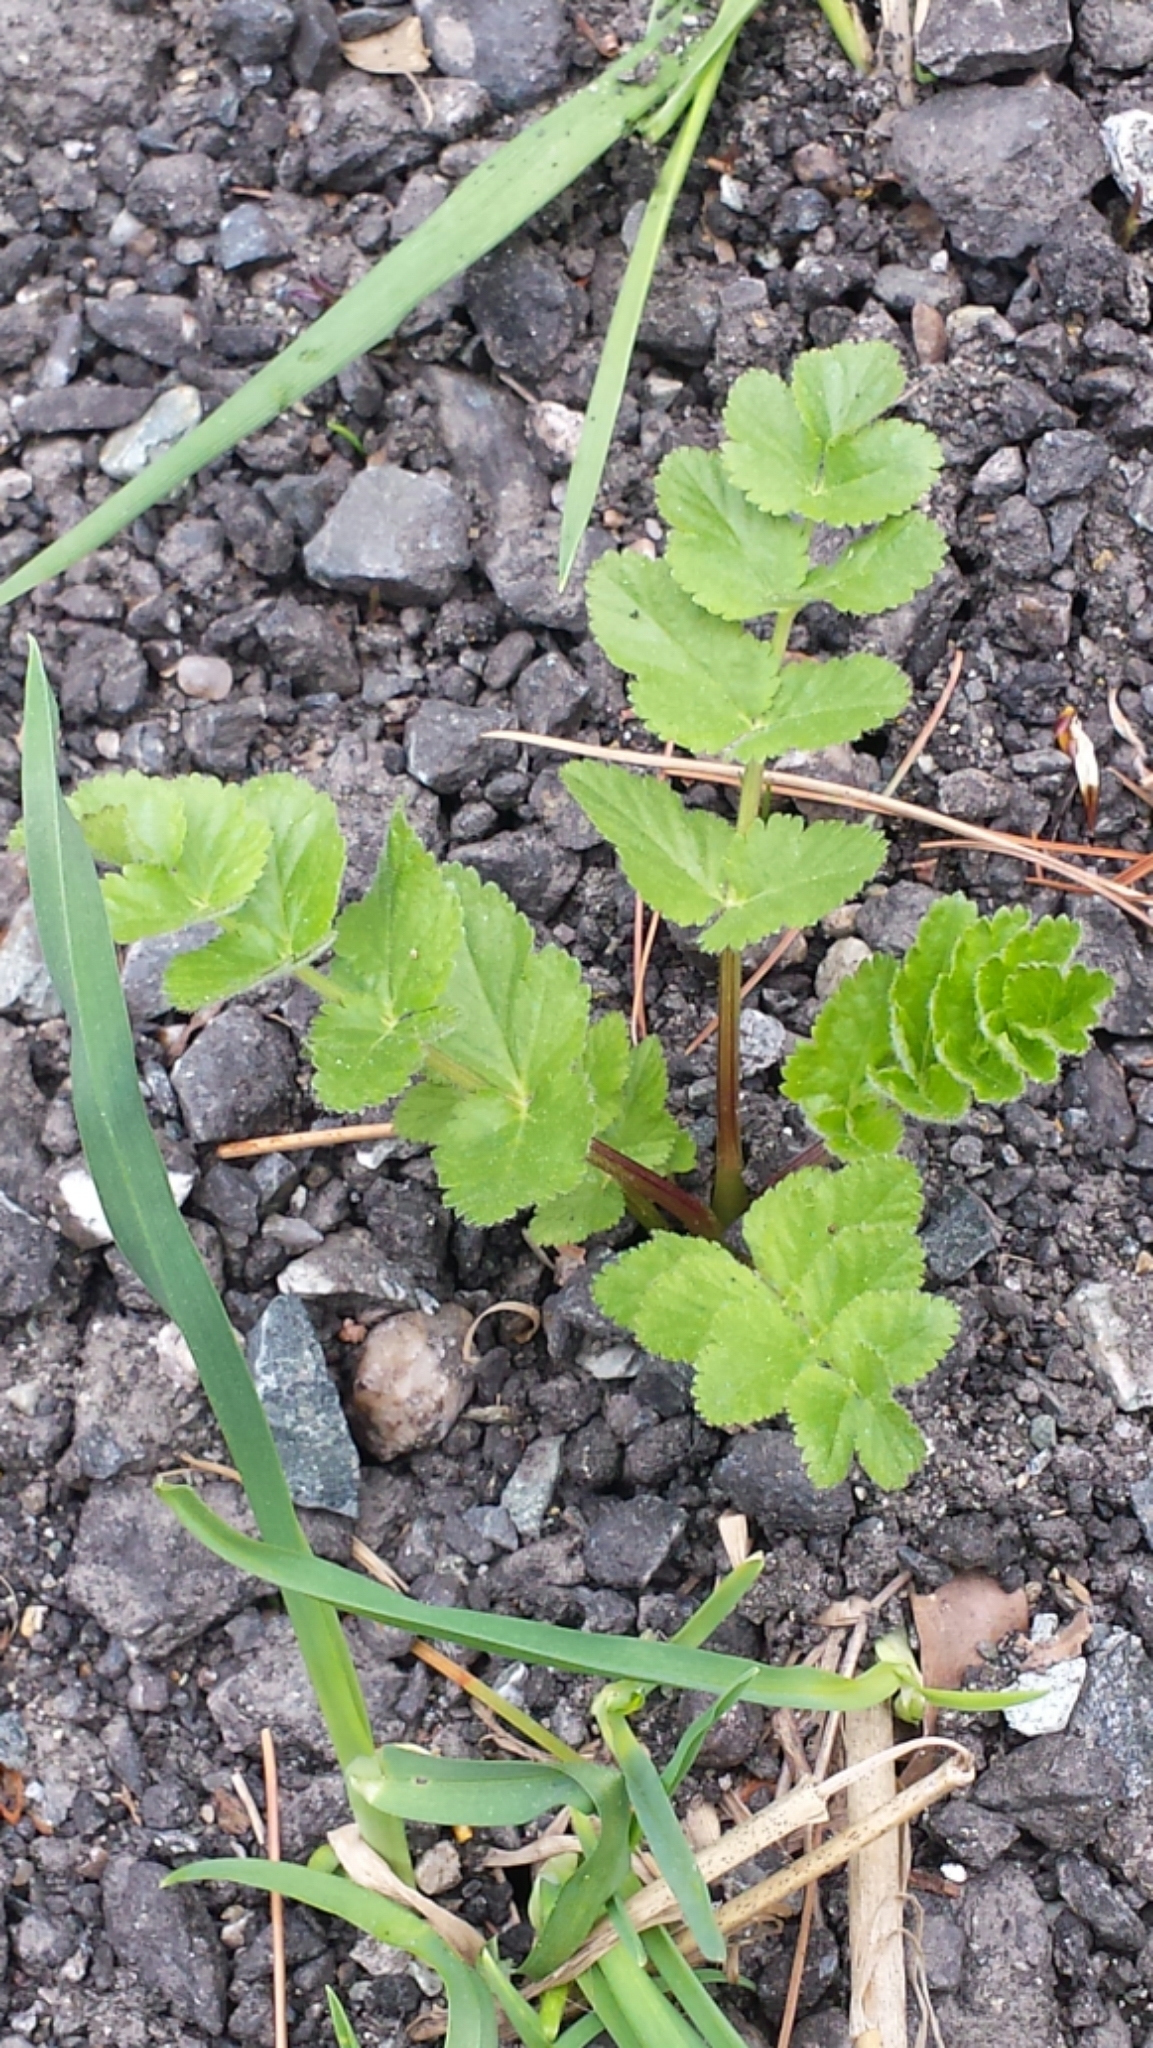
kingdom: Plantae
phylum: Tracheophyta
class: Magnoliopsida
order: Apiales
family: Apiaceae
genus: Pastinaca
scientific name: Pastinaca sativa
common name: Wild parsnip
